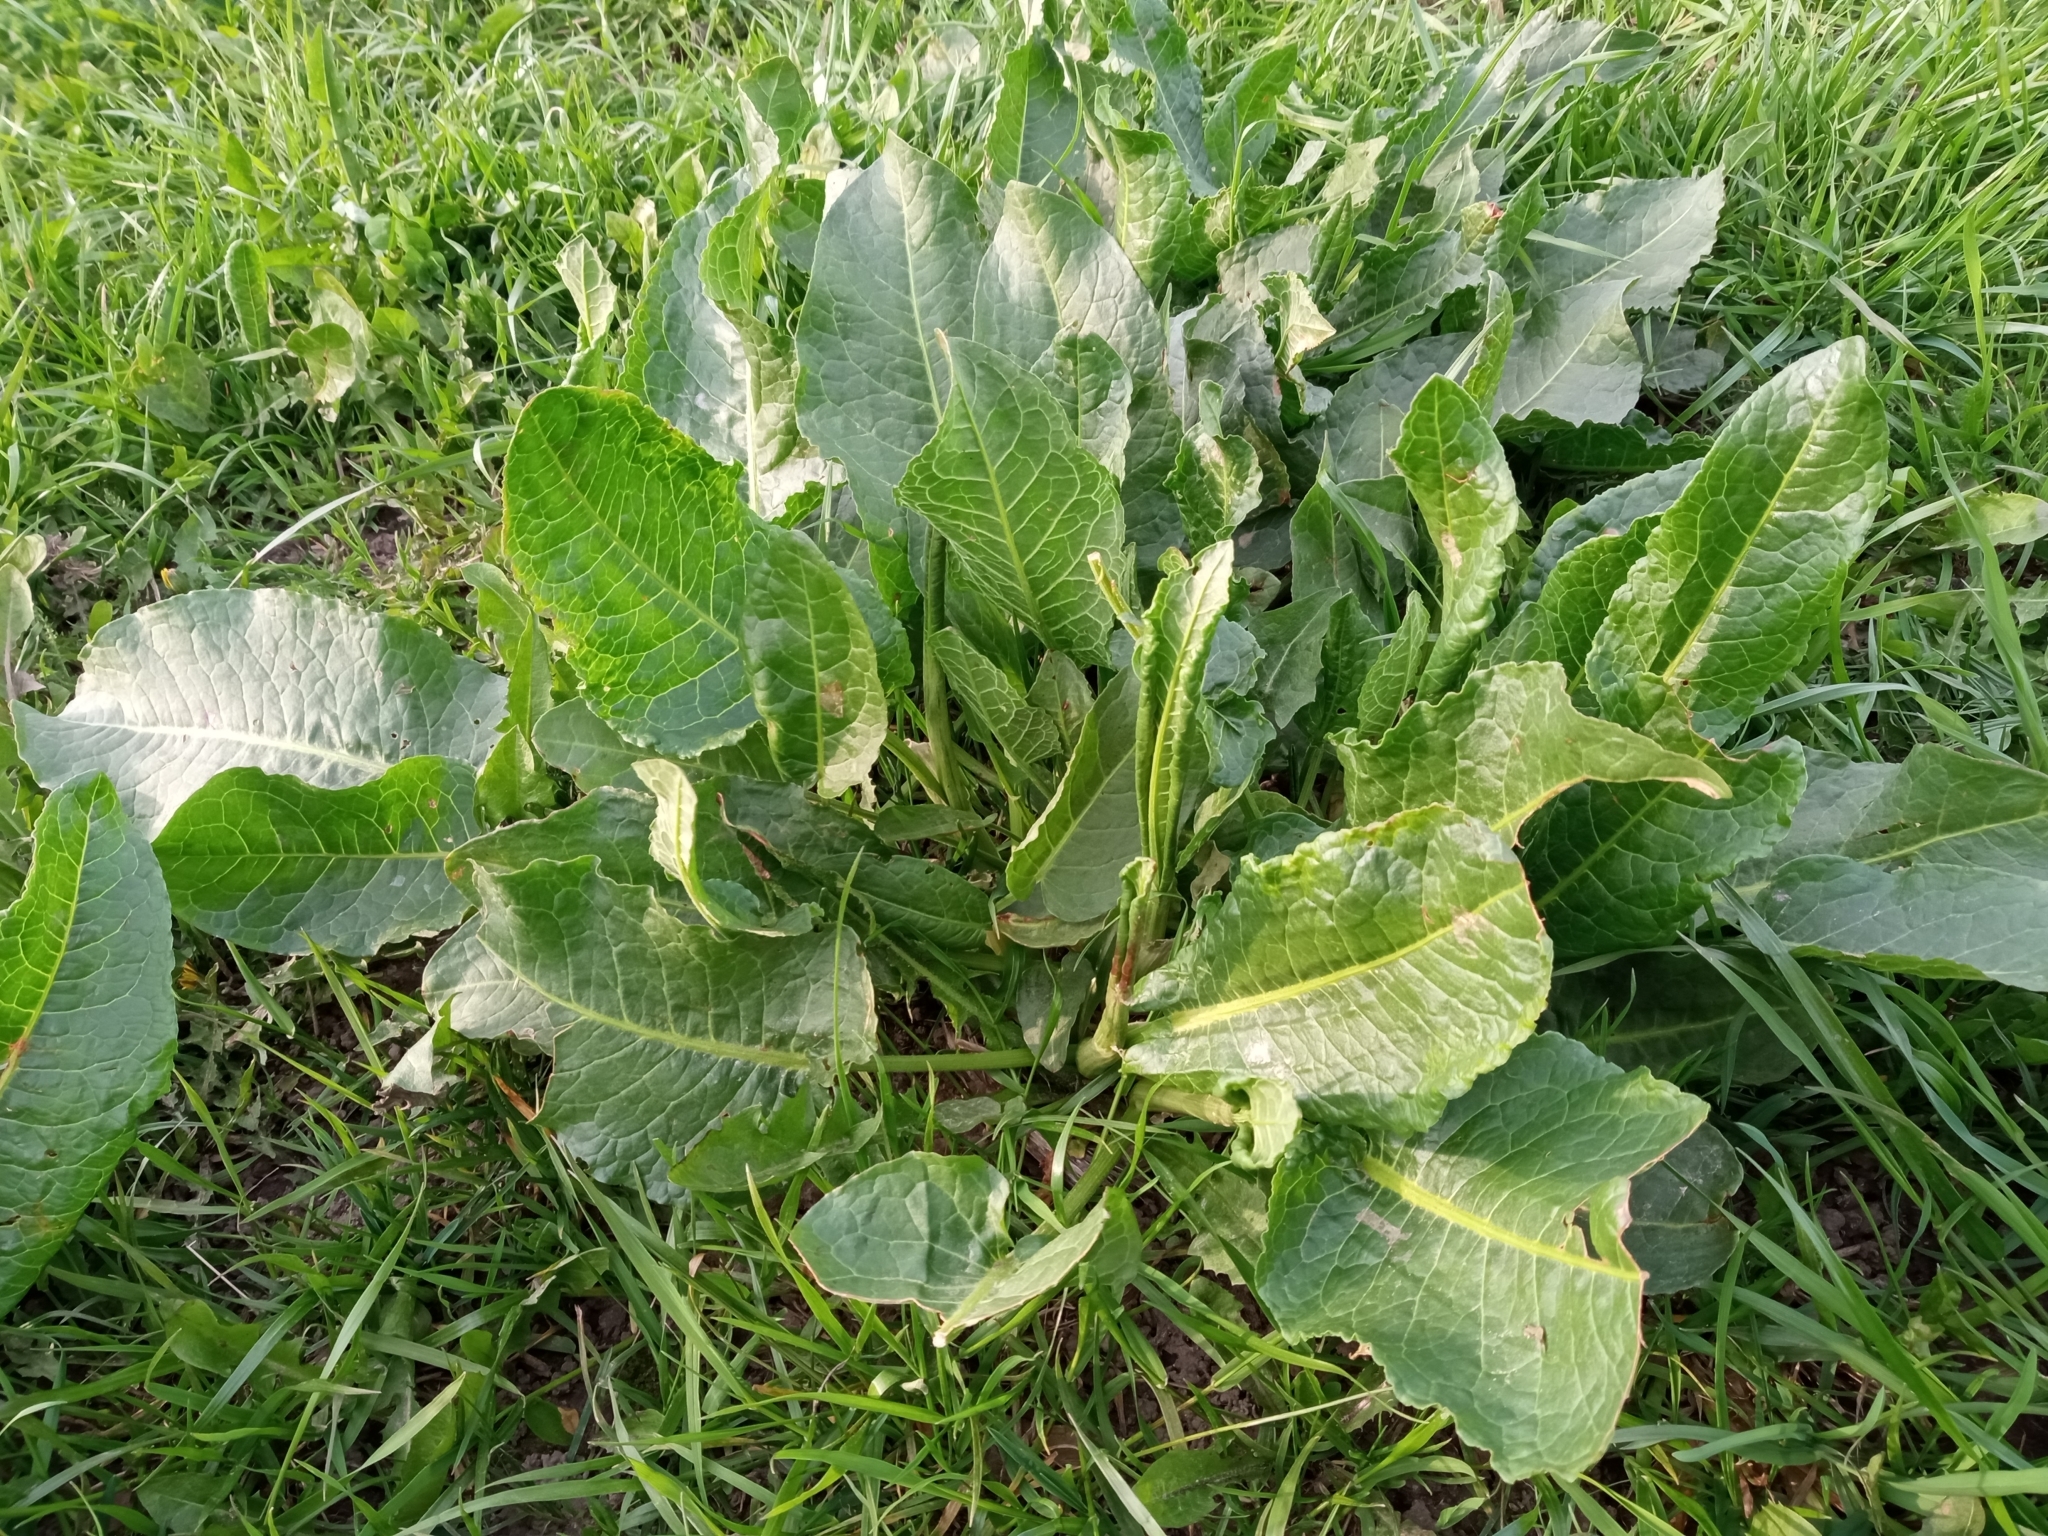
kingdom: Plantae
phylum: Tracheophyta
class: Magnoliopsida
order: Caryophyllales
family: Polygonaceae
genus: Rumex
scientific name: Rumex confertus
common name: Russian dock
